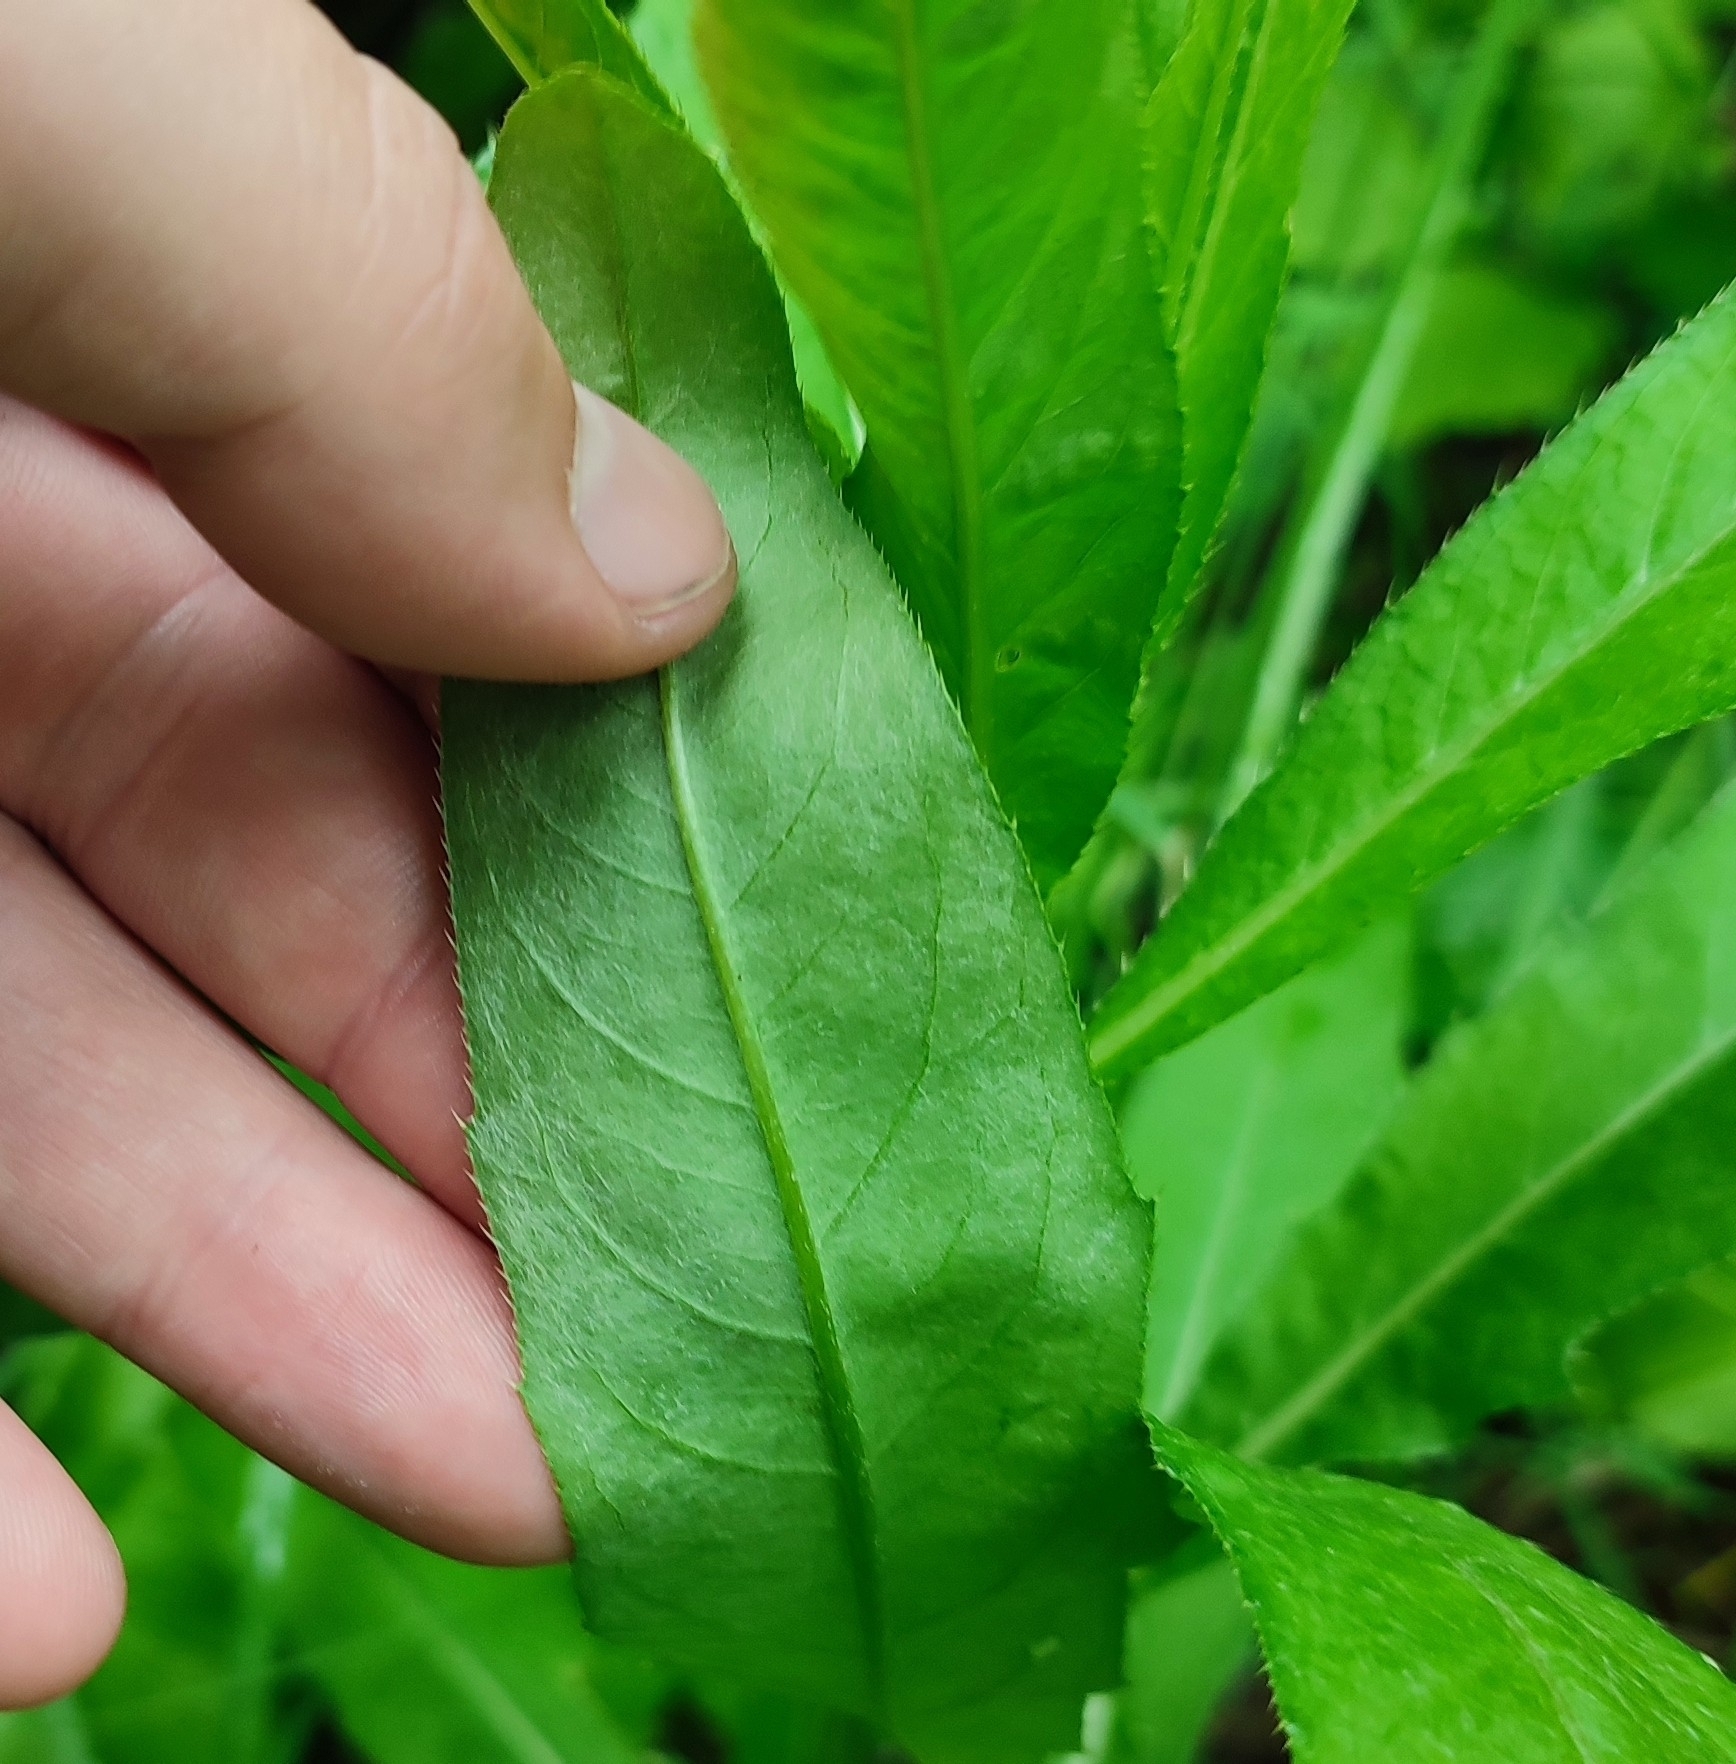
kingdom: Plantae
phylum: Tracheophyta
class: Magnoliopsida
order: Asterales
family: Asteraceae
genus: Cirsium
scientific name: Cirsium arvense
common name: Creeping thistle
